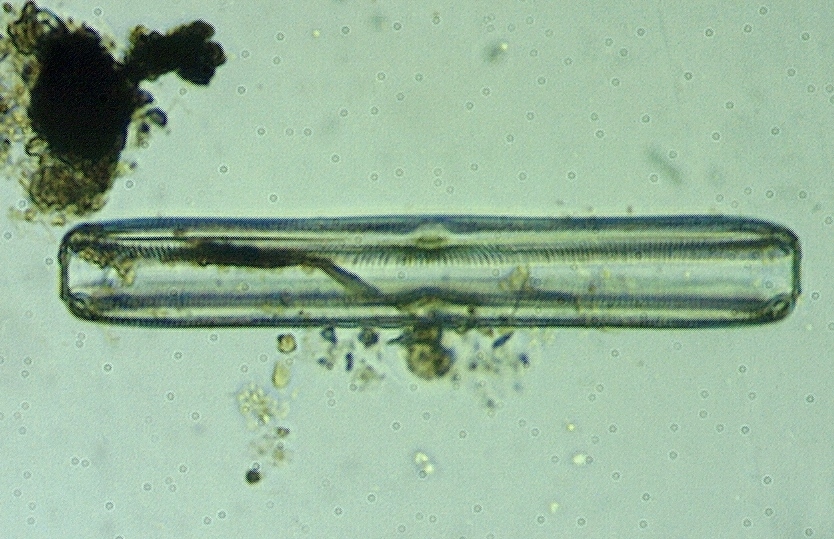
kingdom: Chromista
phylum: Ochrophyta
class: Bacillariophyceae
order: Naviculales
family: Pinnulariaceae
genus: Pinnularia
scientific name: Pinnularia
